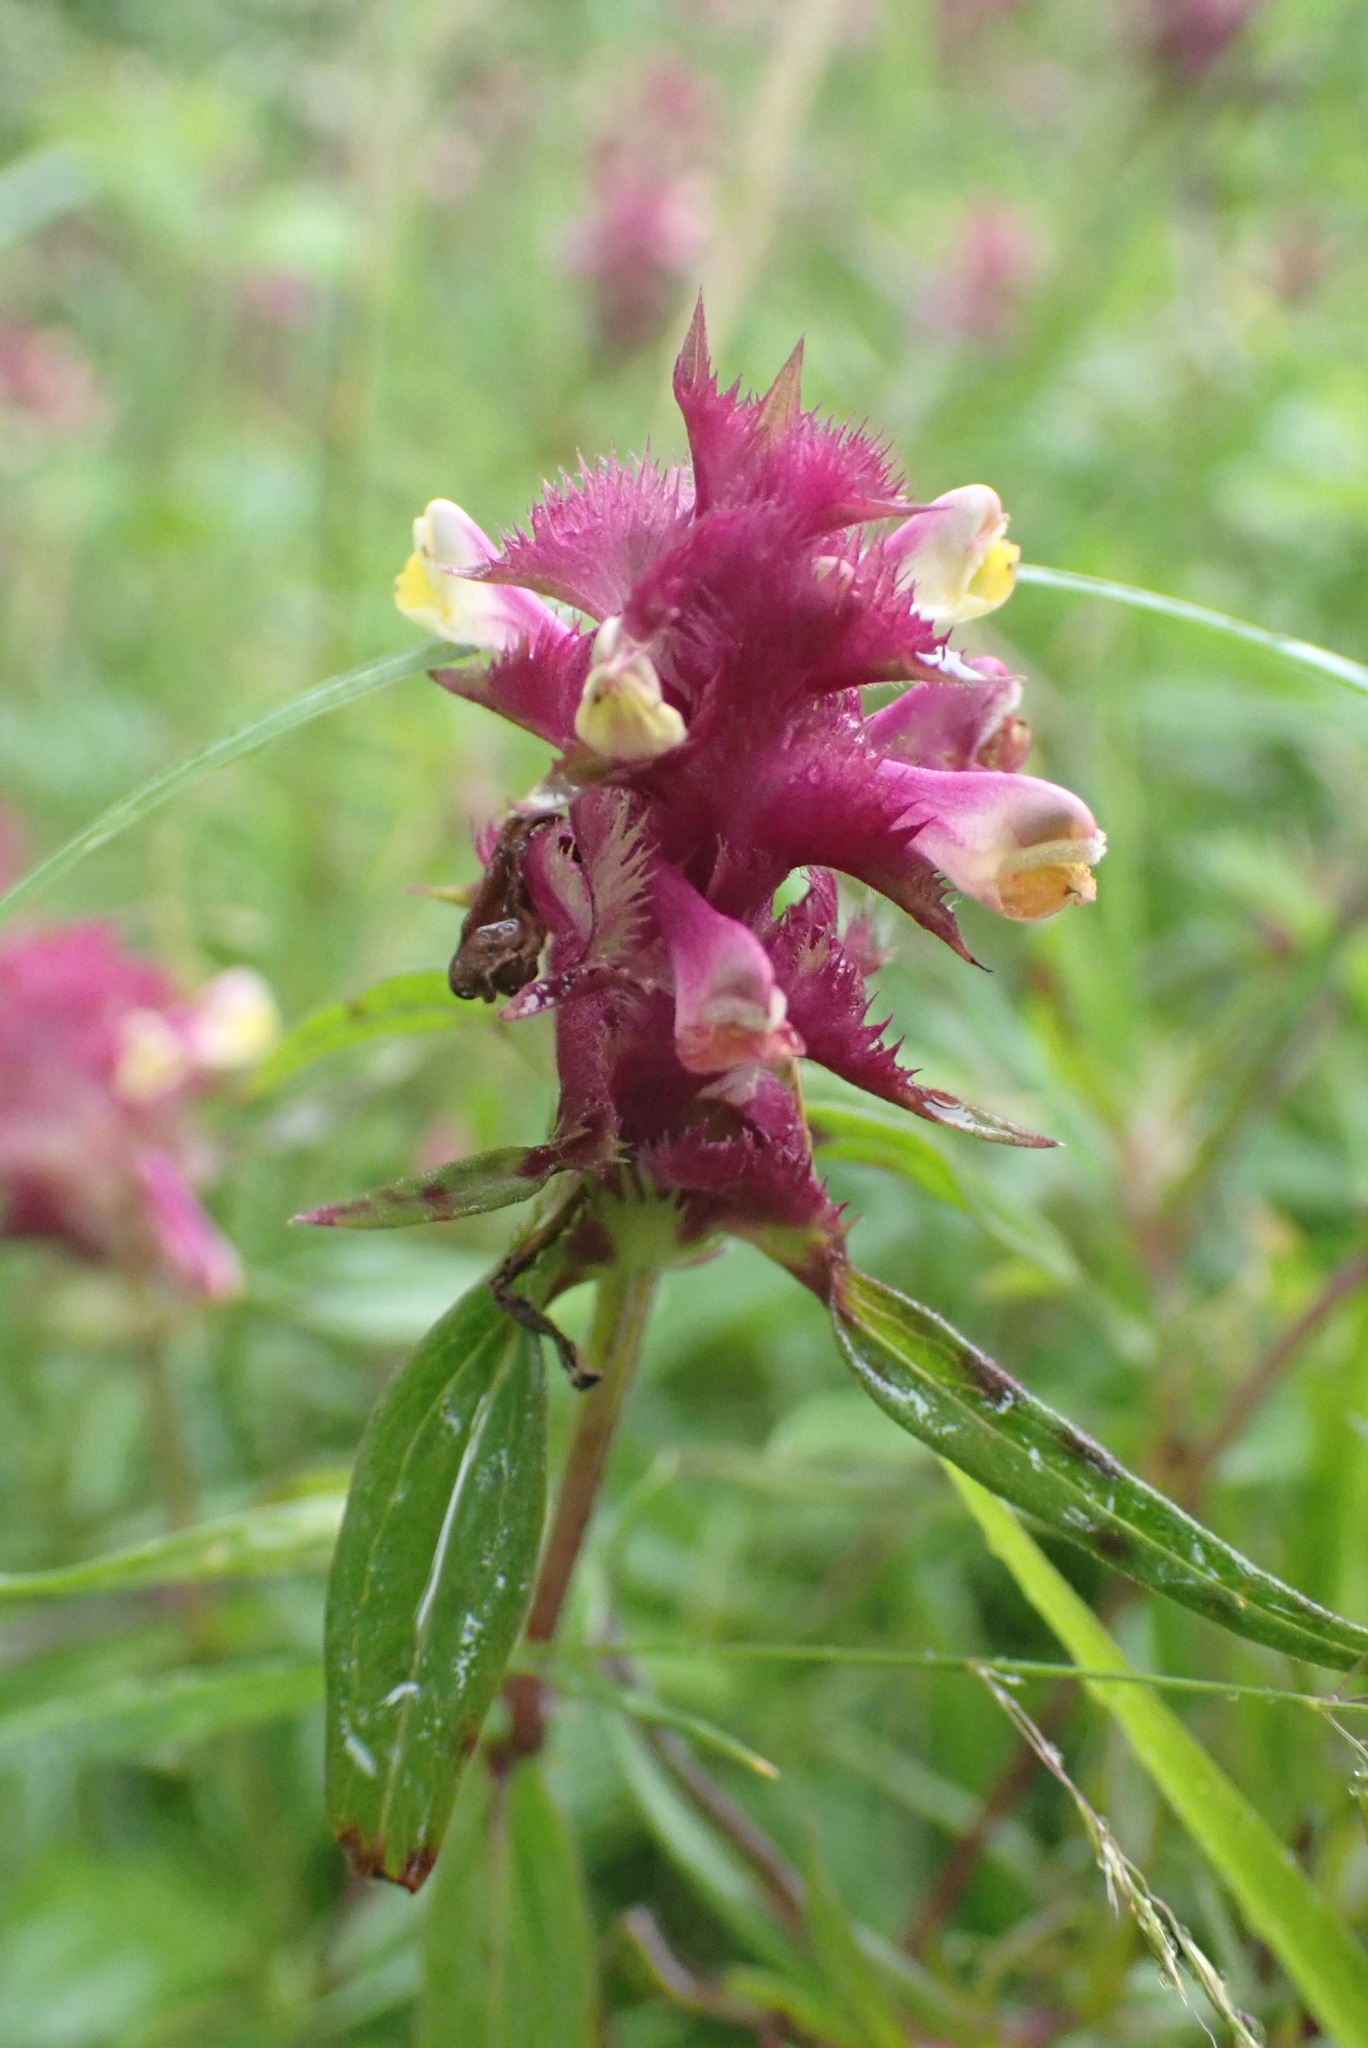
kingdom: Plantae
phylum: Tracheophyta
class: Magnoliopsida
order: Lamiales
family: Orobanchaceae
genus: Melampyrum
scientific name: Melampyrum cristatum
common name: Crested cow-wheat
